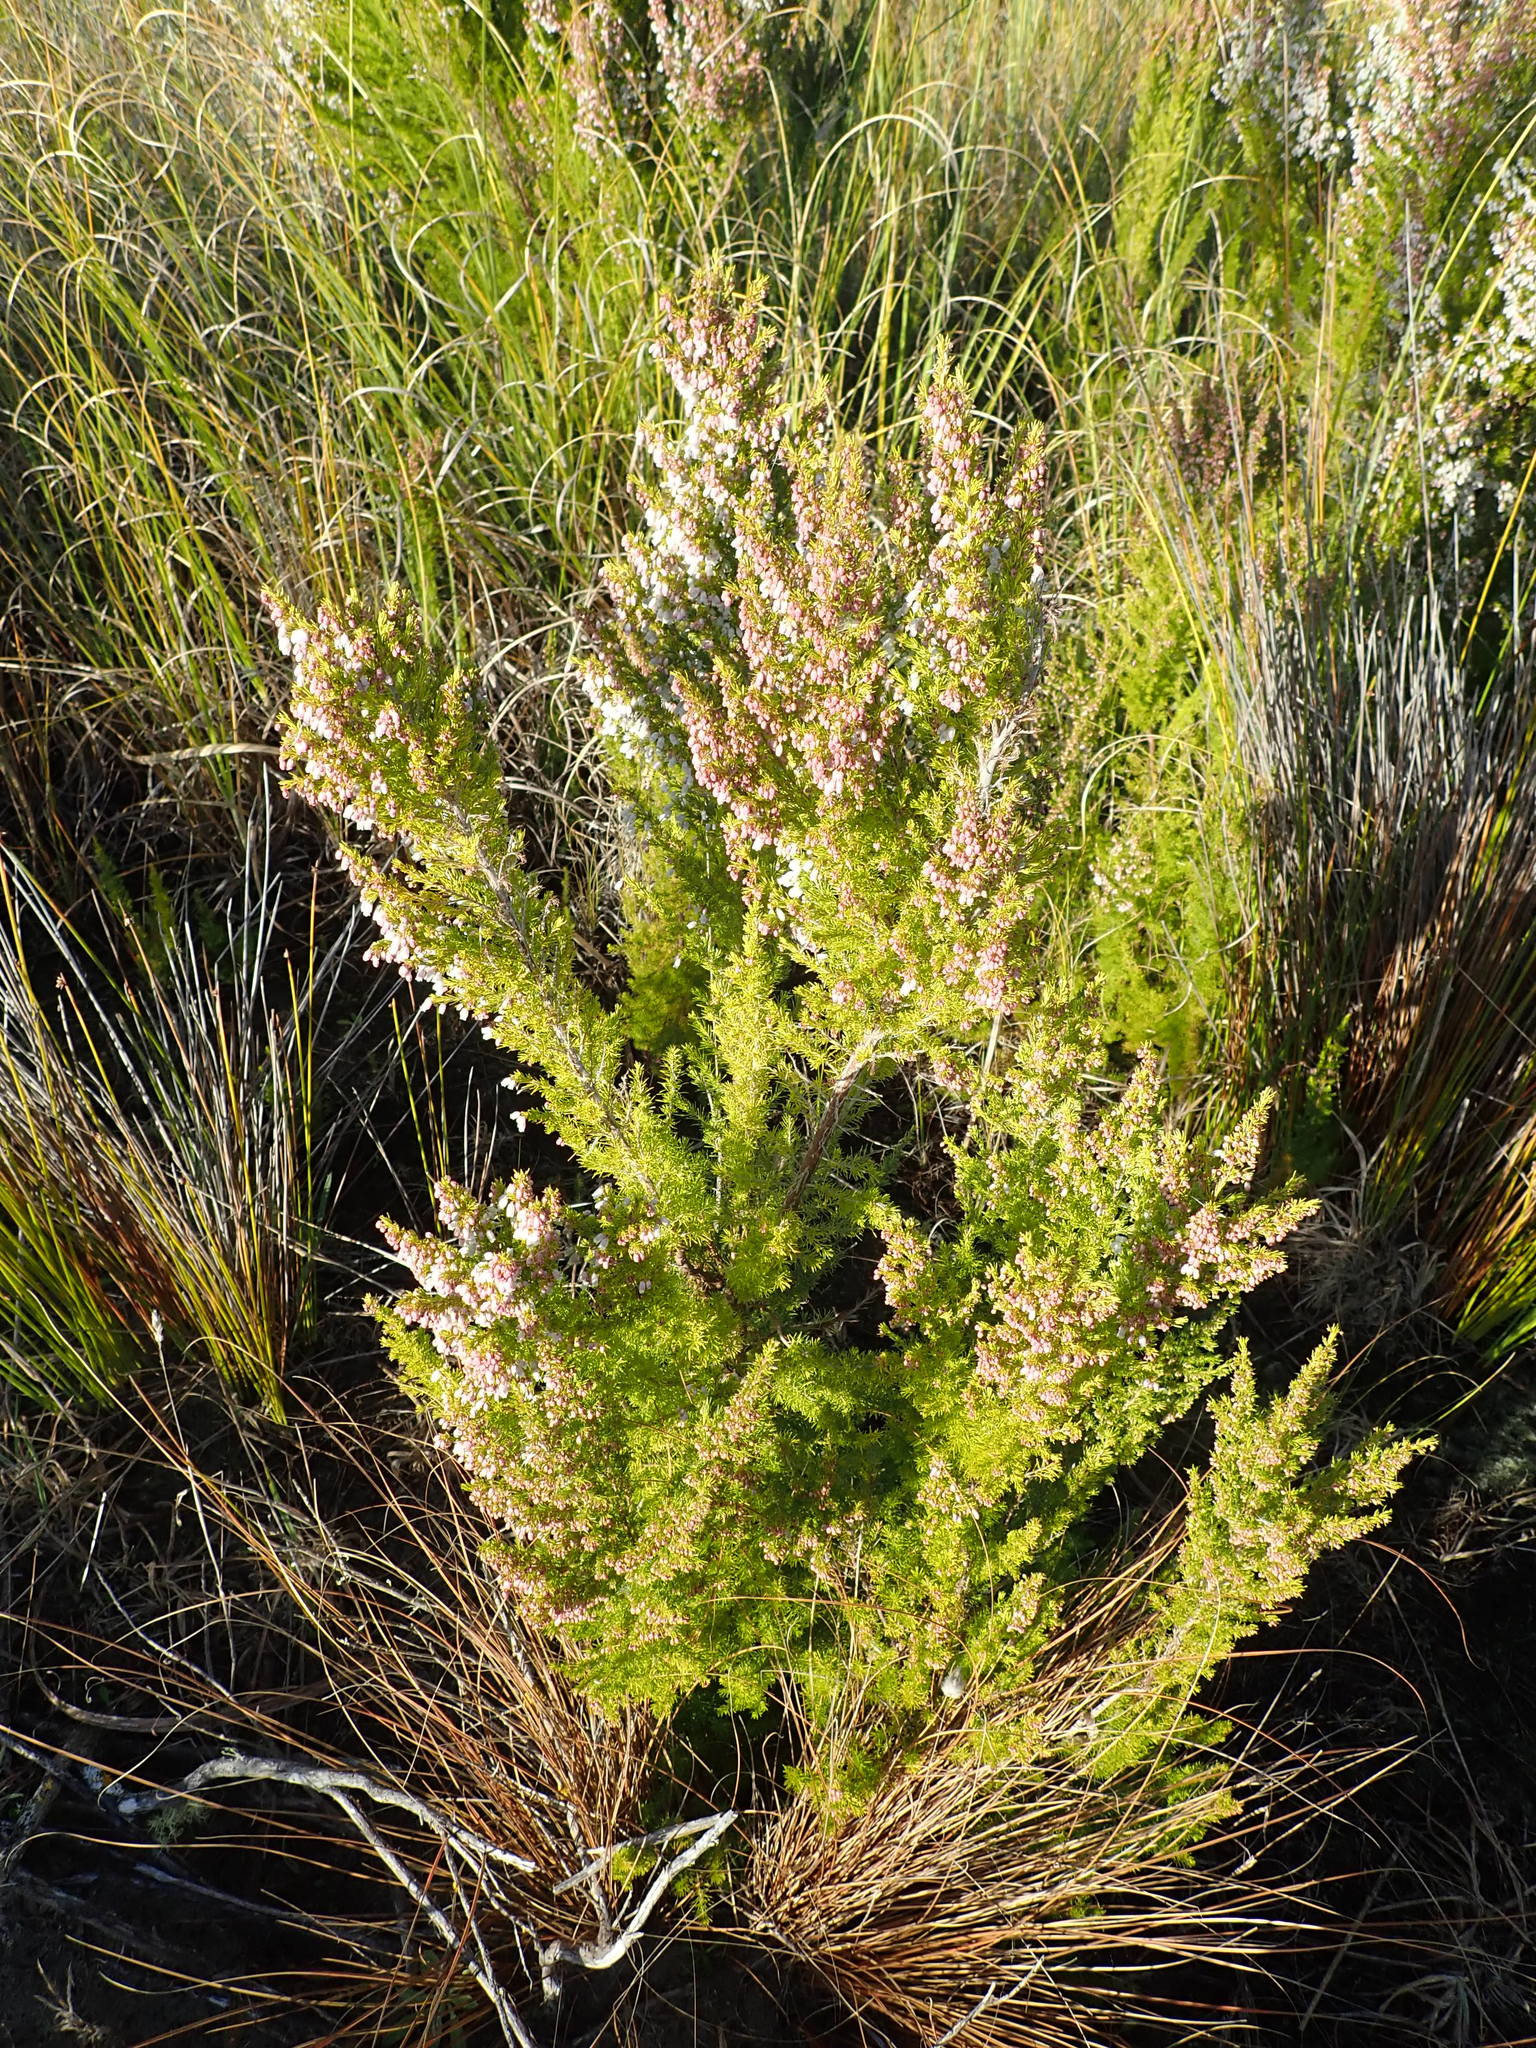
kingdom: Plantae
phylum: Tracheophyta
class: Magnoliopsida
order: Ericales
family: Ericaceae
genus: Erica
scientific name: Erica lusitanica
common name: Spanish heath
